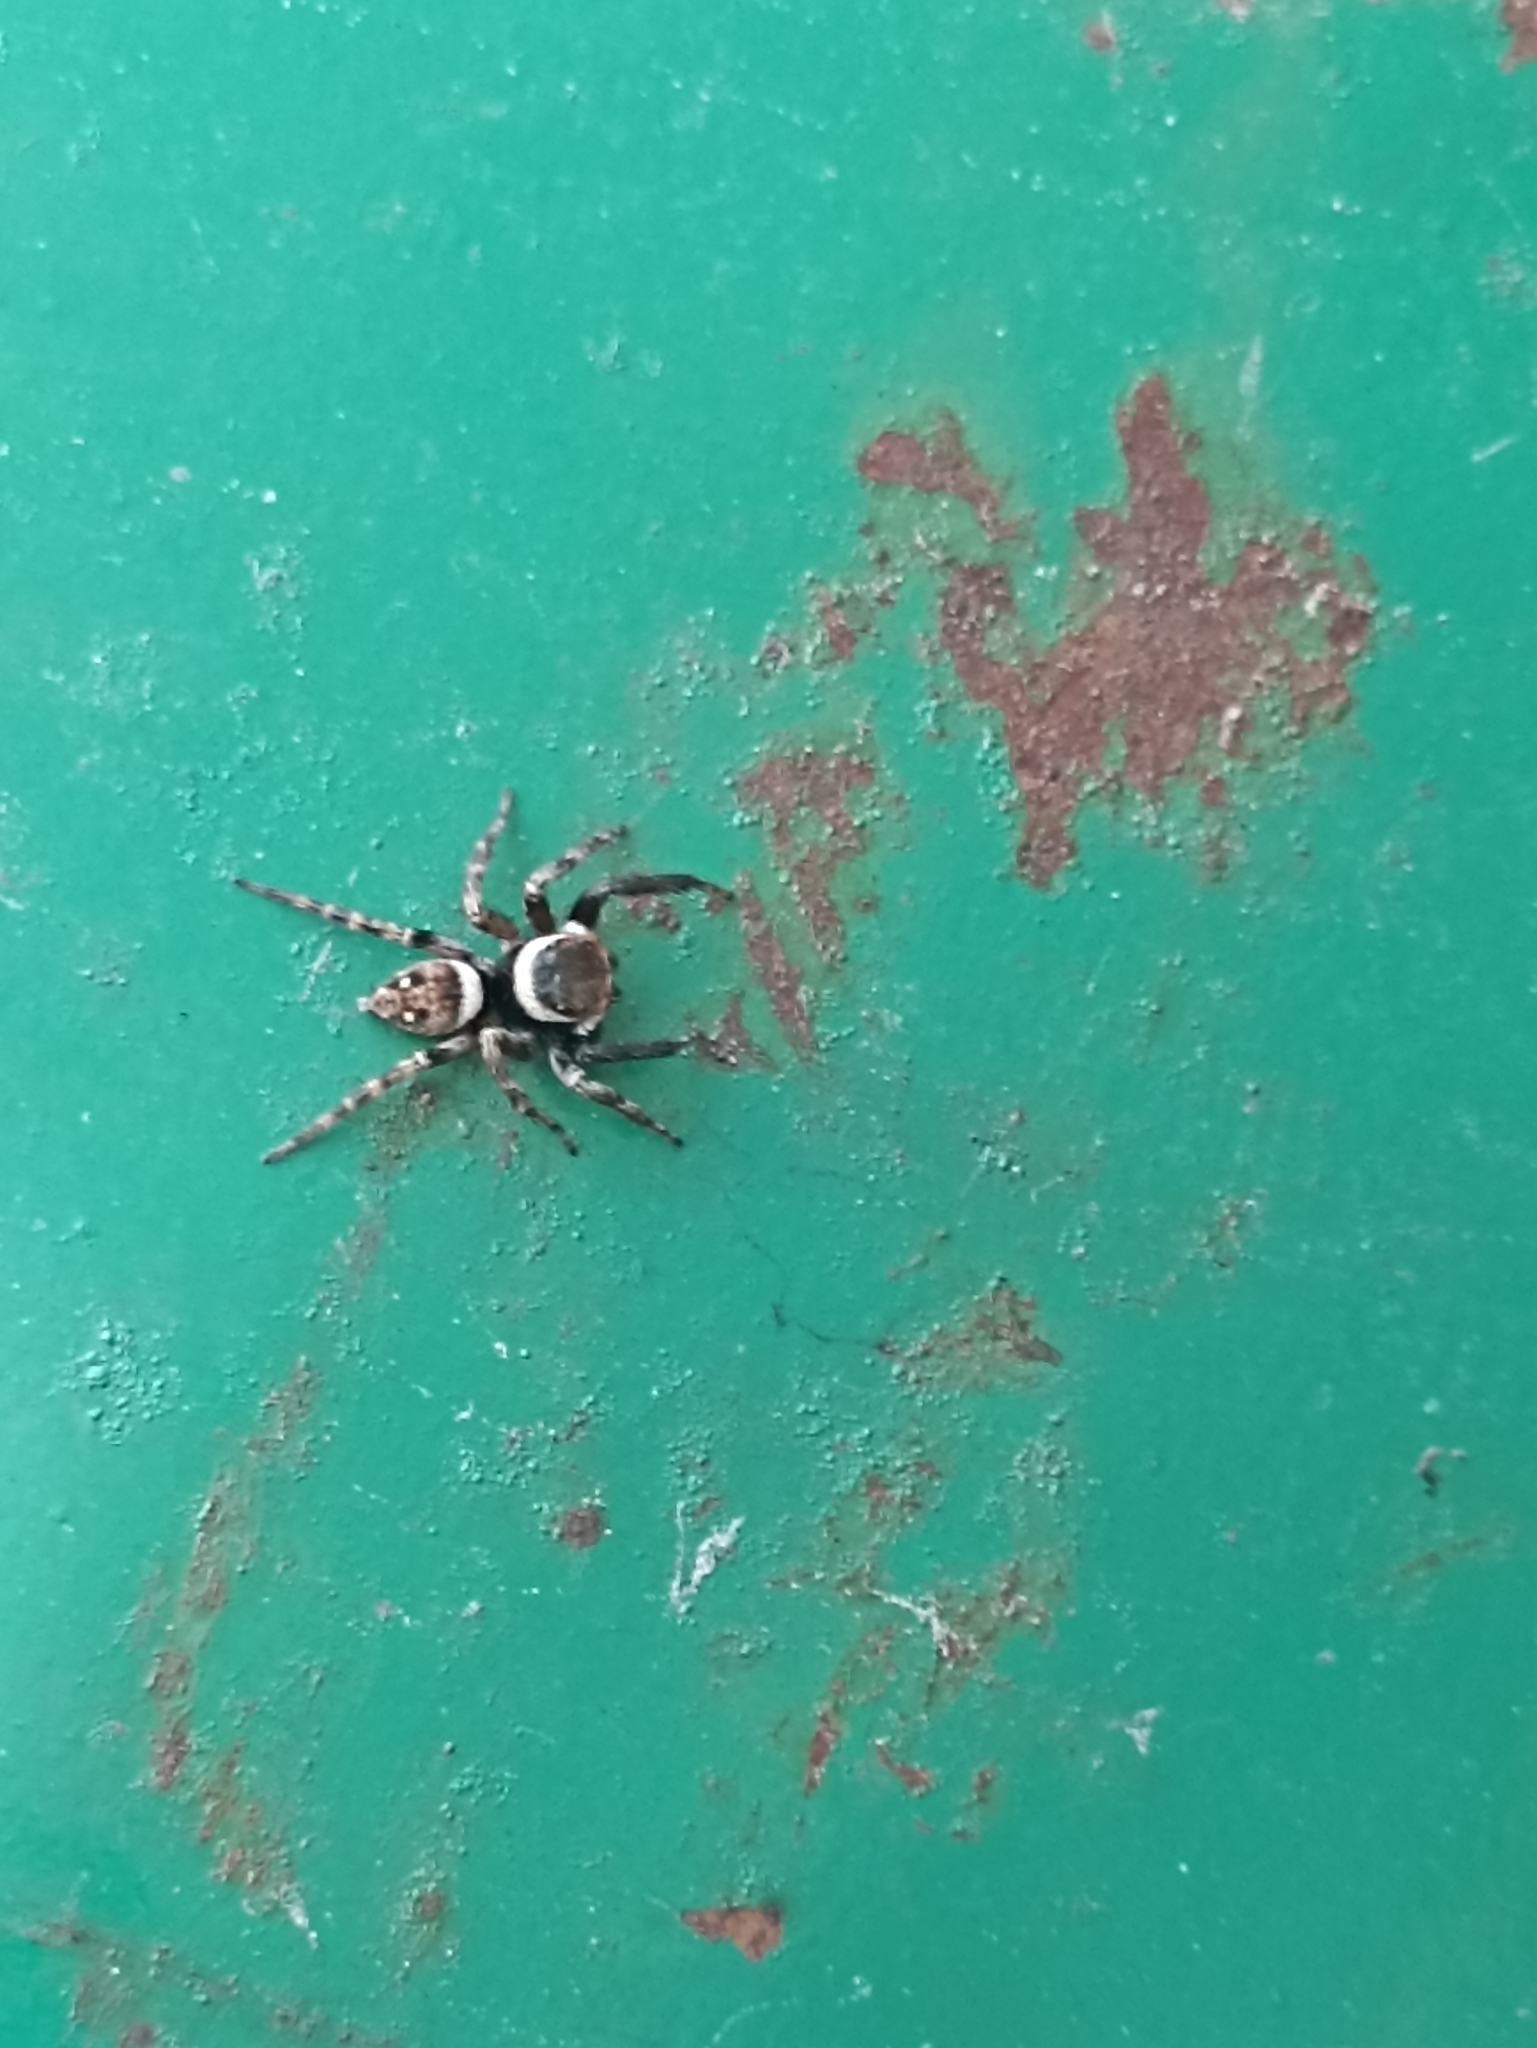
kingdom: Animalia
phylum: Arthropoda
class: Arachnida
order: Araneae
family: Salticidae
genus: Hasarius
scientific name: Hasarius adansoni
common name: Jumping spider
